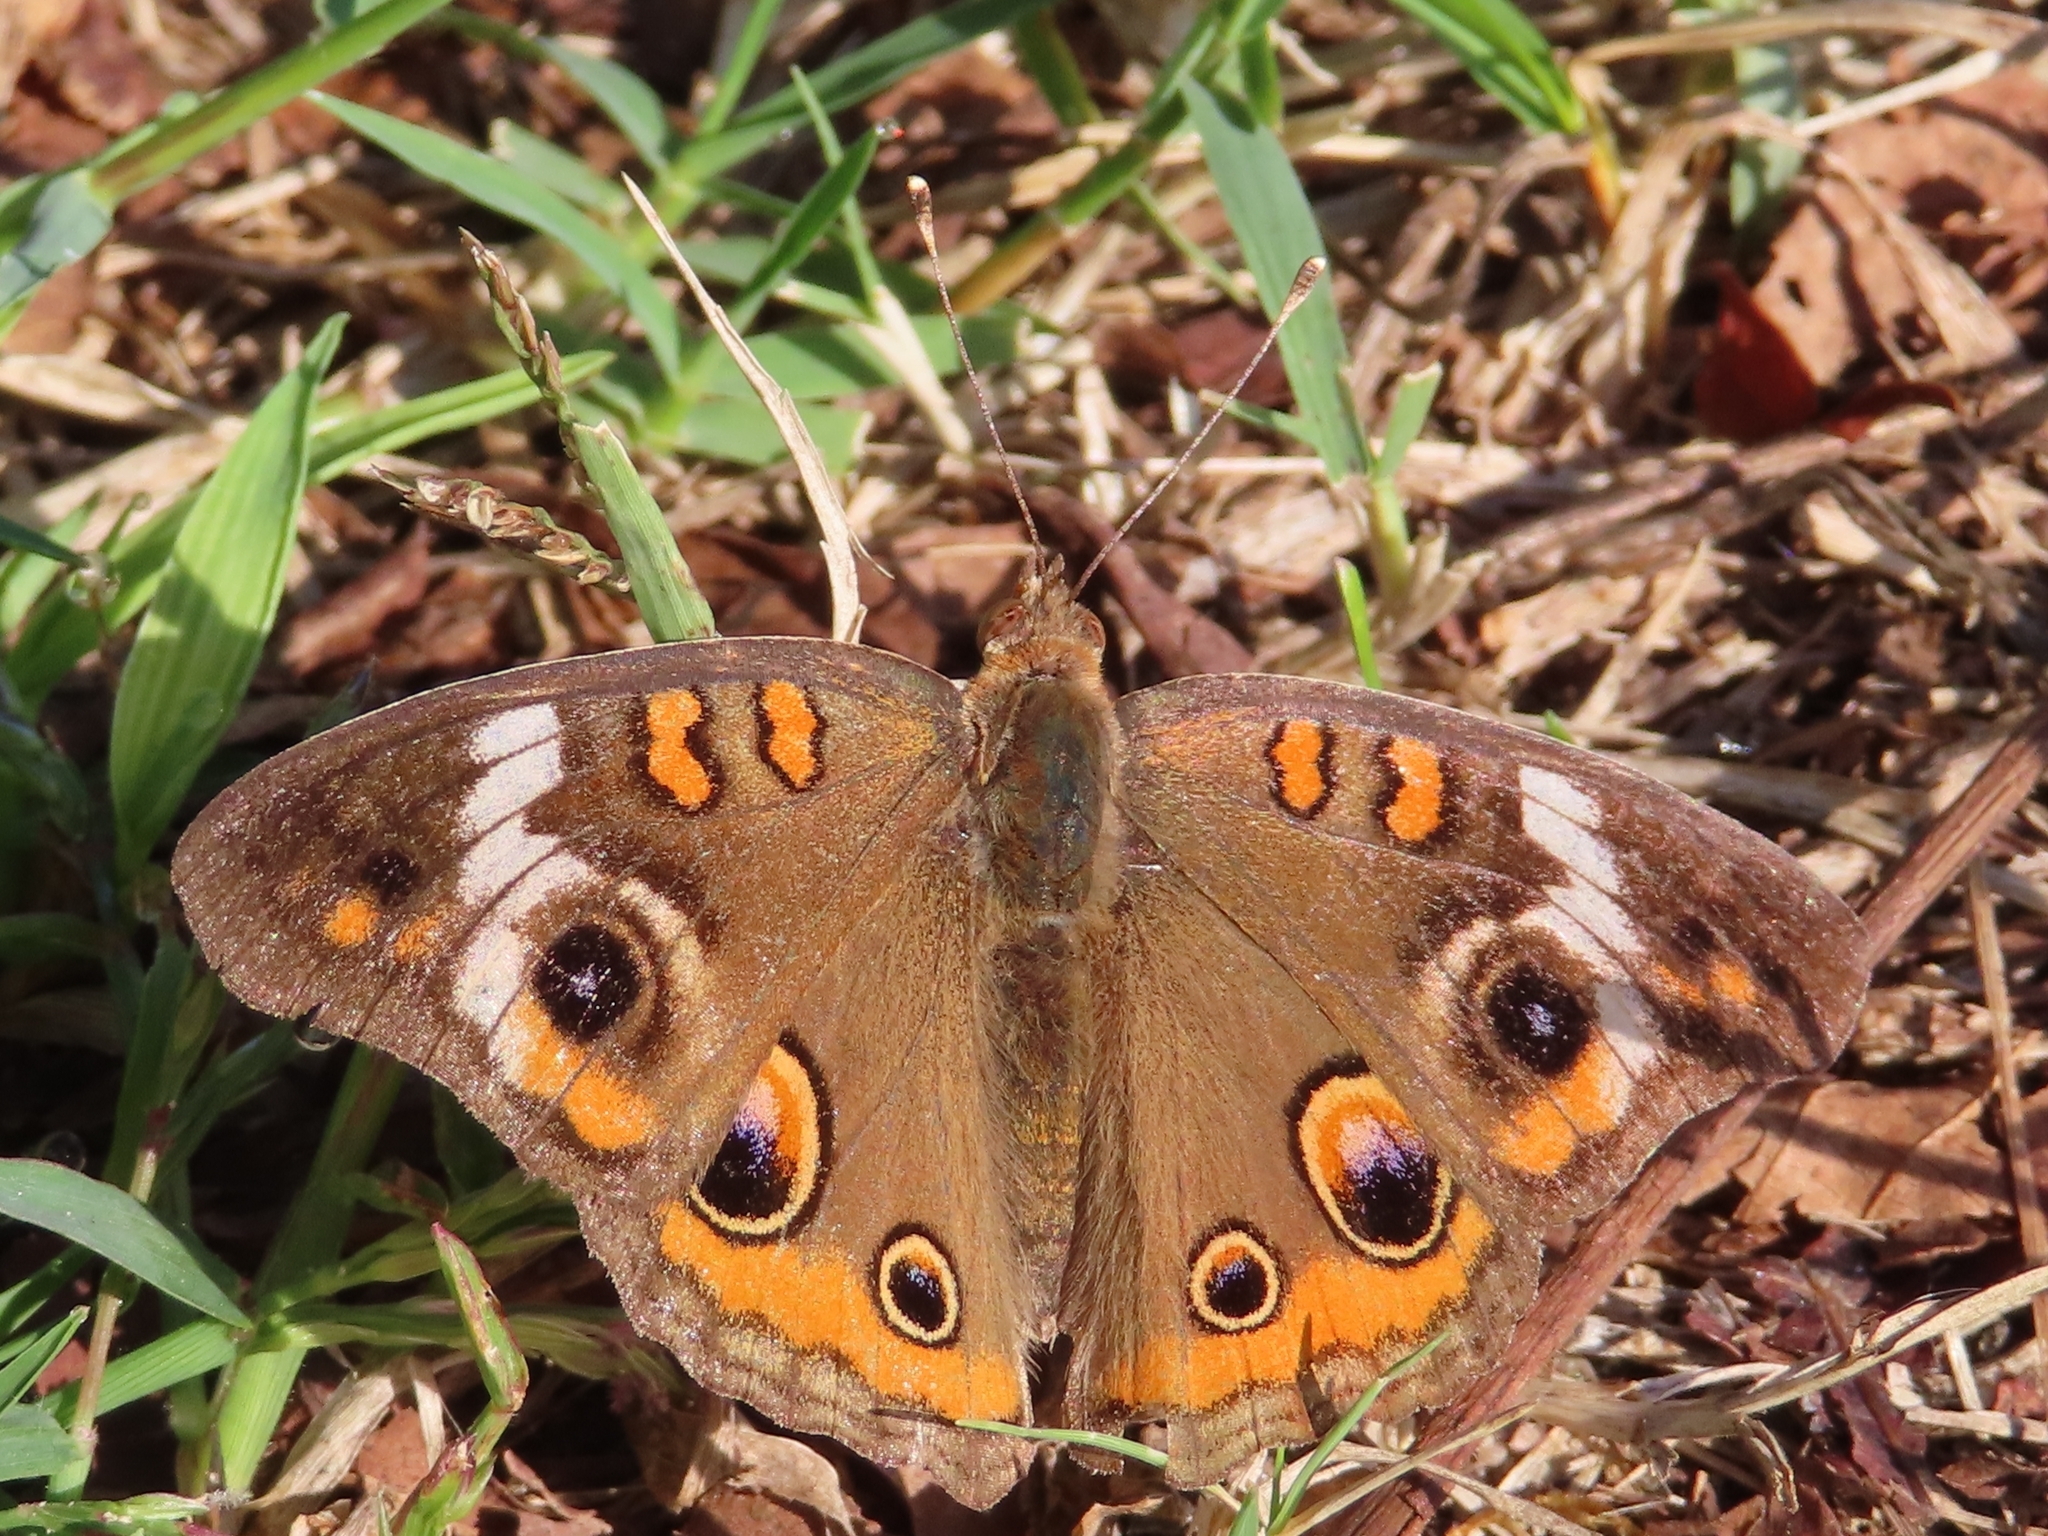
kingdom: Animalia
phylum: Arthropoda
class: Insecta
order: Lepidoptera
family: Nymphalidae
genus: Junonia
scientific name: Junonia coenia
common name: Common buckeye
